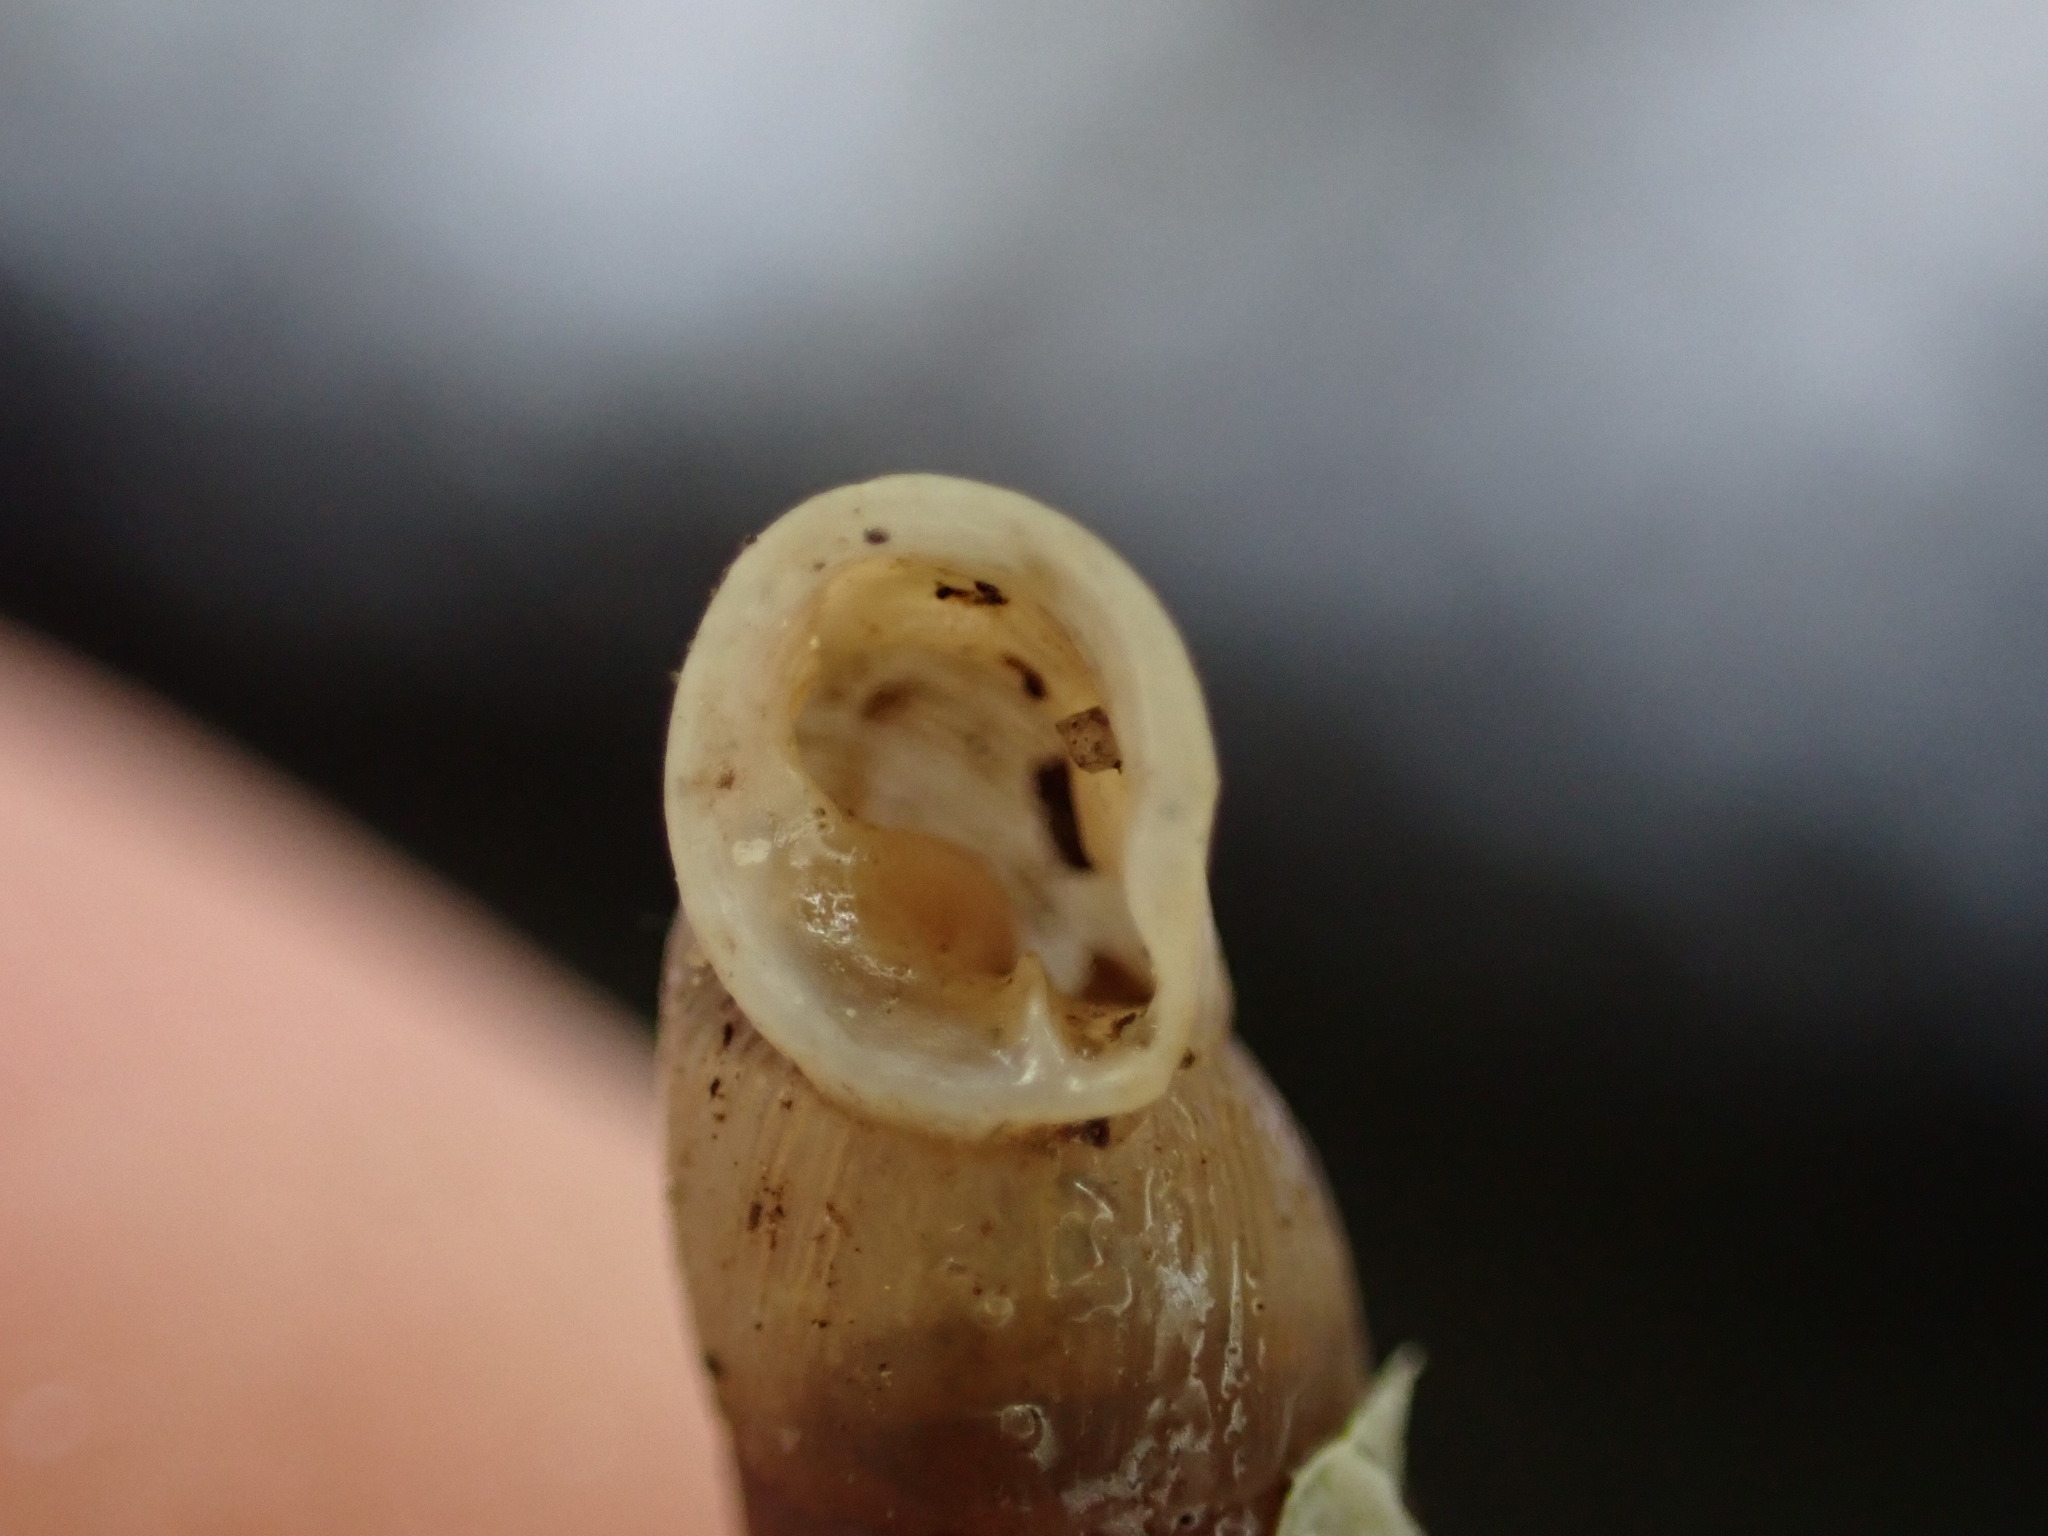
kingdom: Animalia
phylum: Mollusca
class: Gastropoda
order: Stylommatophora
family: Clausiliidae
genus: Papillifera
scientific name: Papillifera solida
